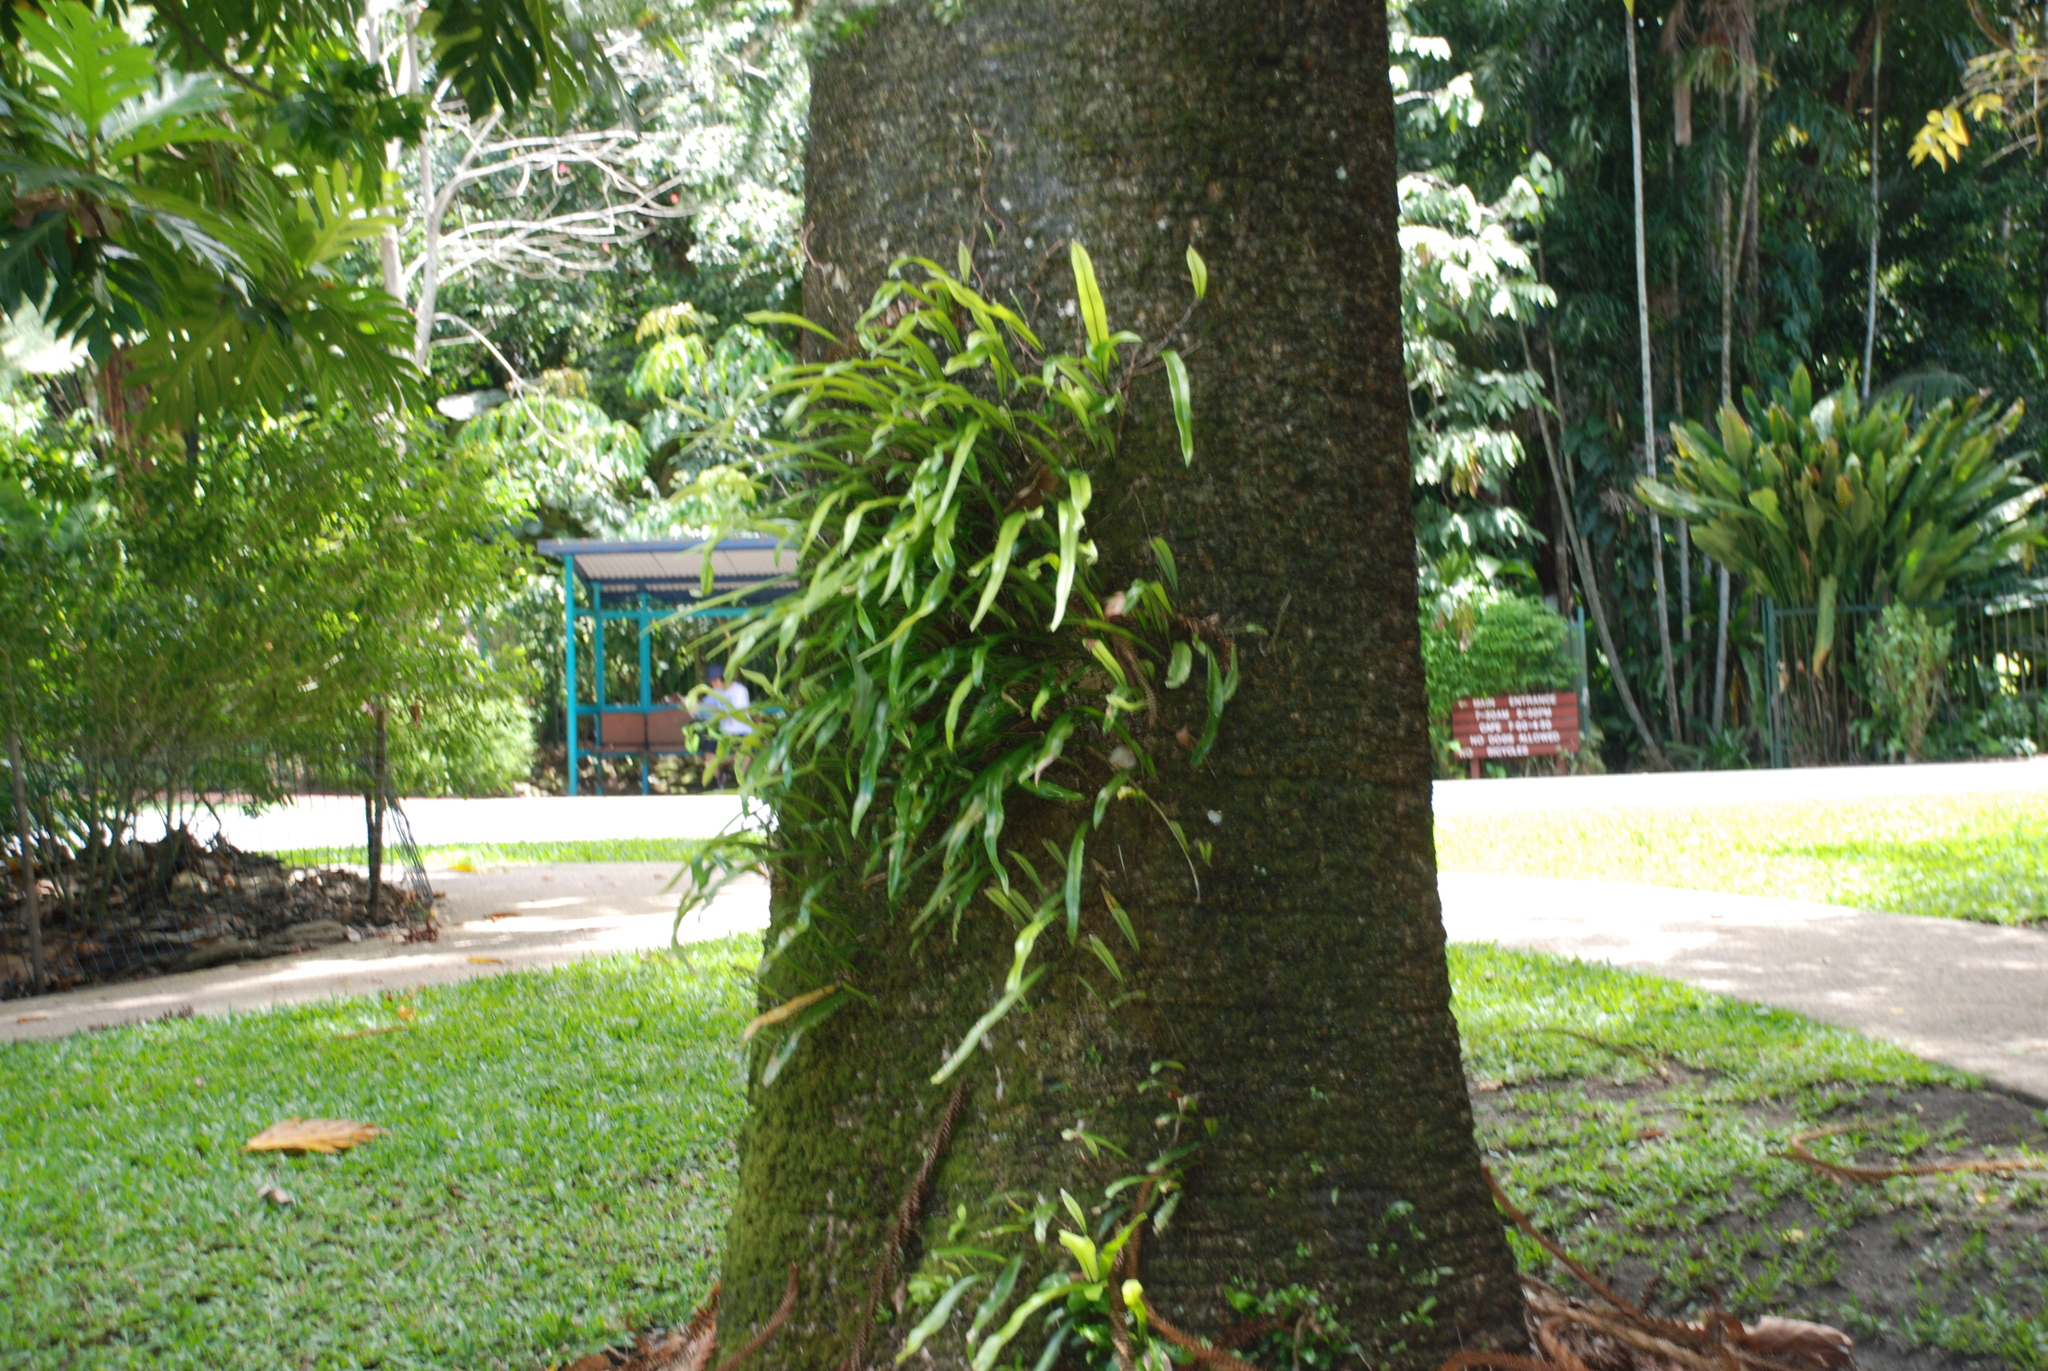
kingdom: Plantae
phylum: Tracheophyta
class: Polypodiopsida
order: Polypodiales
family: Polypodiaceae
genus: Pyrrosia
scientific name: Pyrrosia longifolia
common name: Long-leaved felt fern
